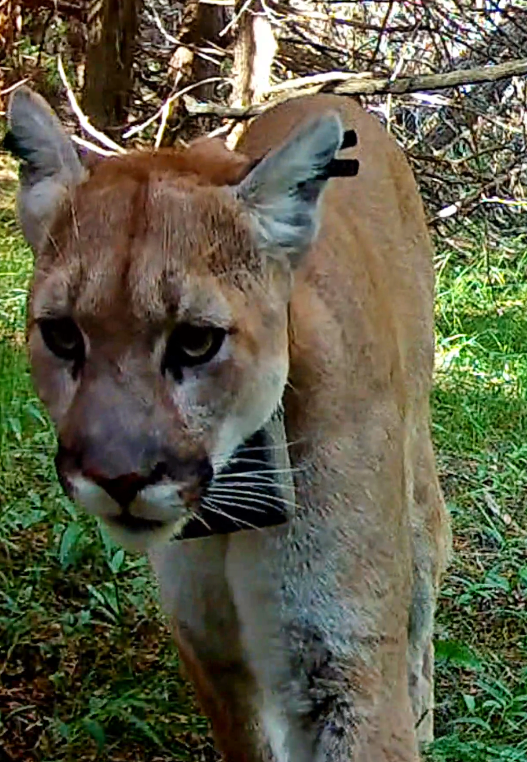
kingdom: Animalia
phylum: Chordata
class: Mammalia
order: Carnivora
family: Felidae
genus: Puma
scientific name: Puma concolor
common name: Puma
